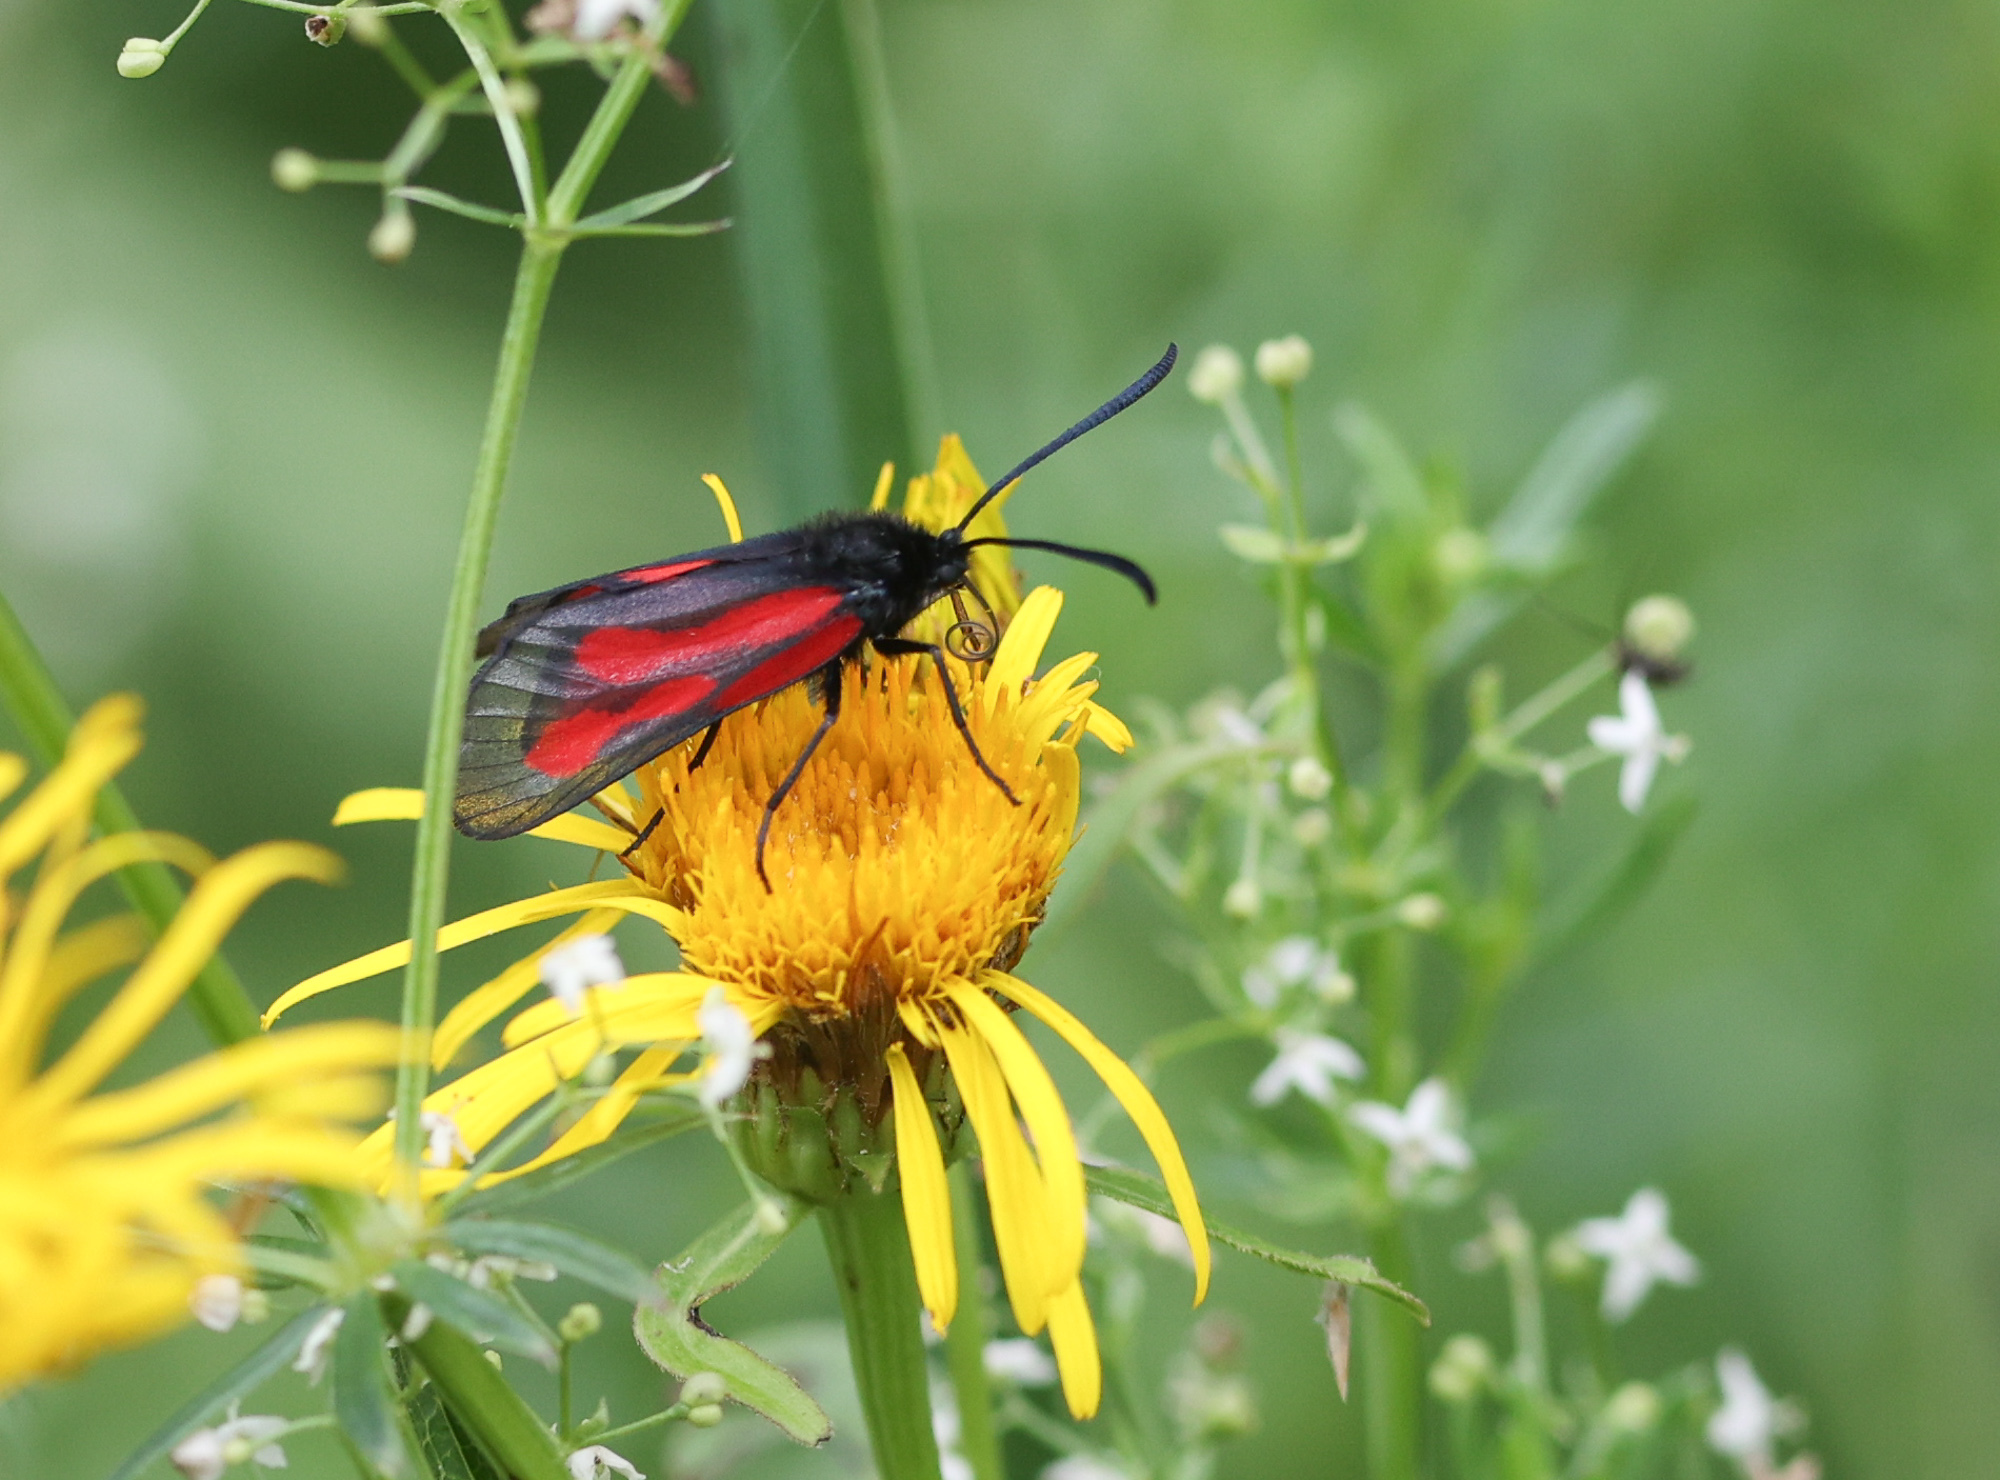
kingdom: Animalia
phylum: Arthropoda
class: Insecta
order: Lepidoptera
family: Zygaenidae
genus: Zygaena
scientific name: Zygaena osterodensis
